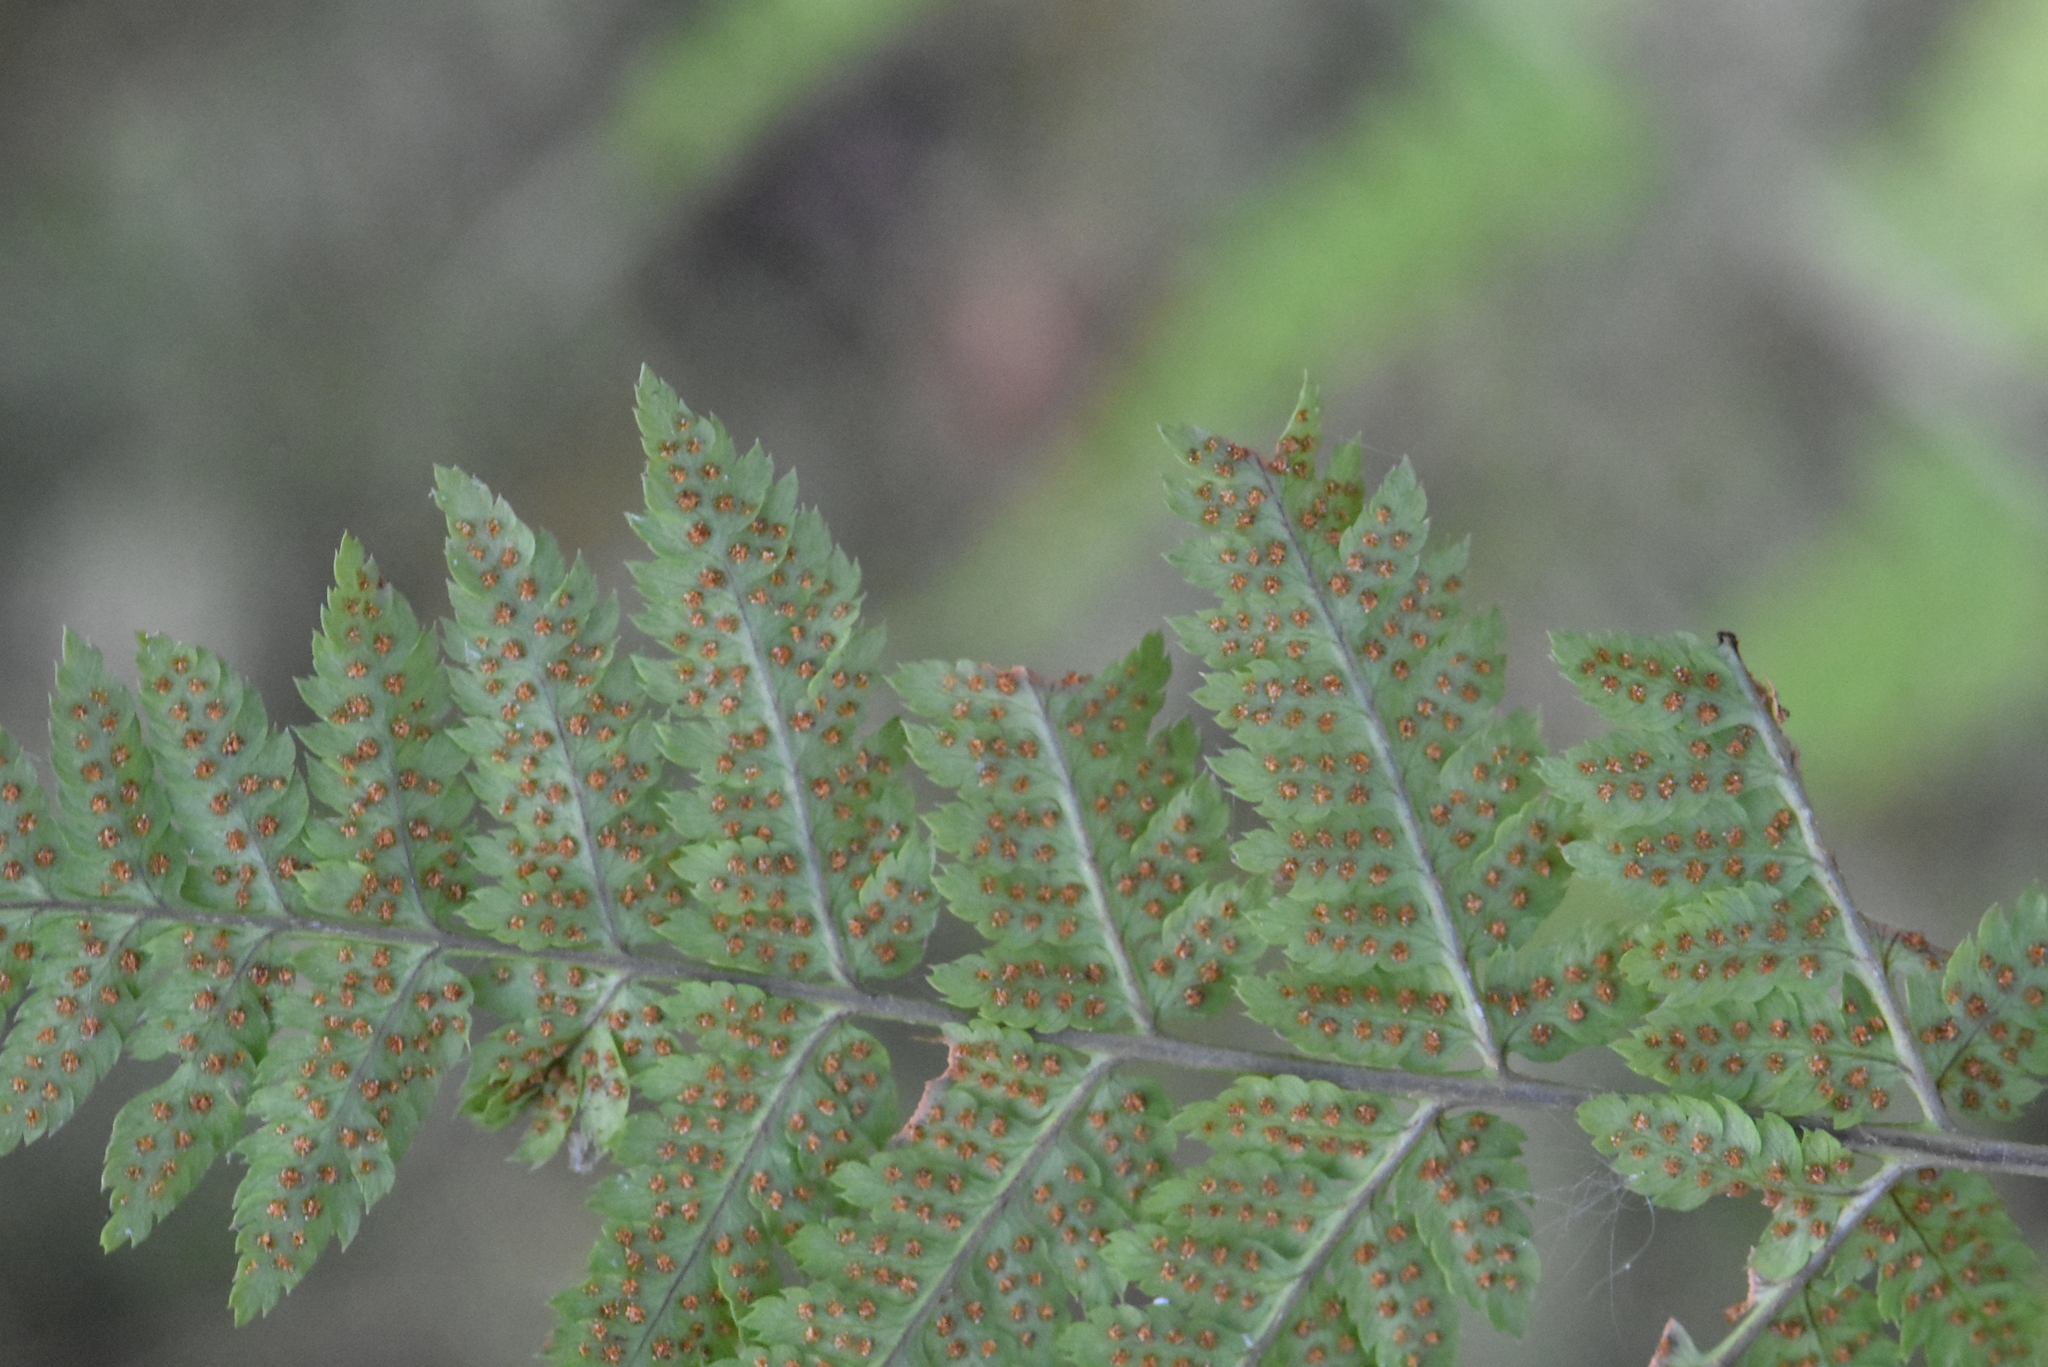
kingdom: Plantae
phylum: Tracheophyta
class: Polypodiopsida
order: Polypodiales
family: Dryopteridaceae
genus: Dryopteris
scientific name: Dryopteris carthusiana
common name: Narrow buckler-fern
